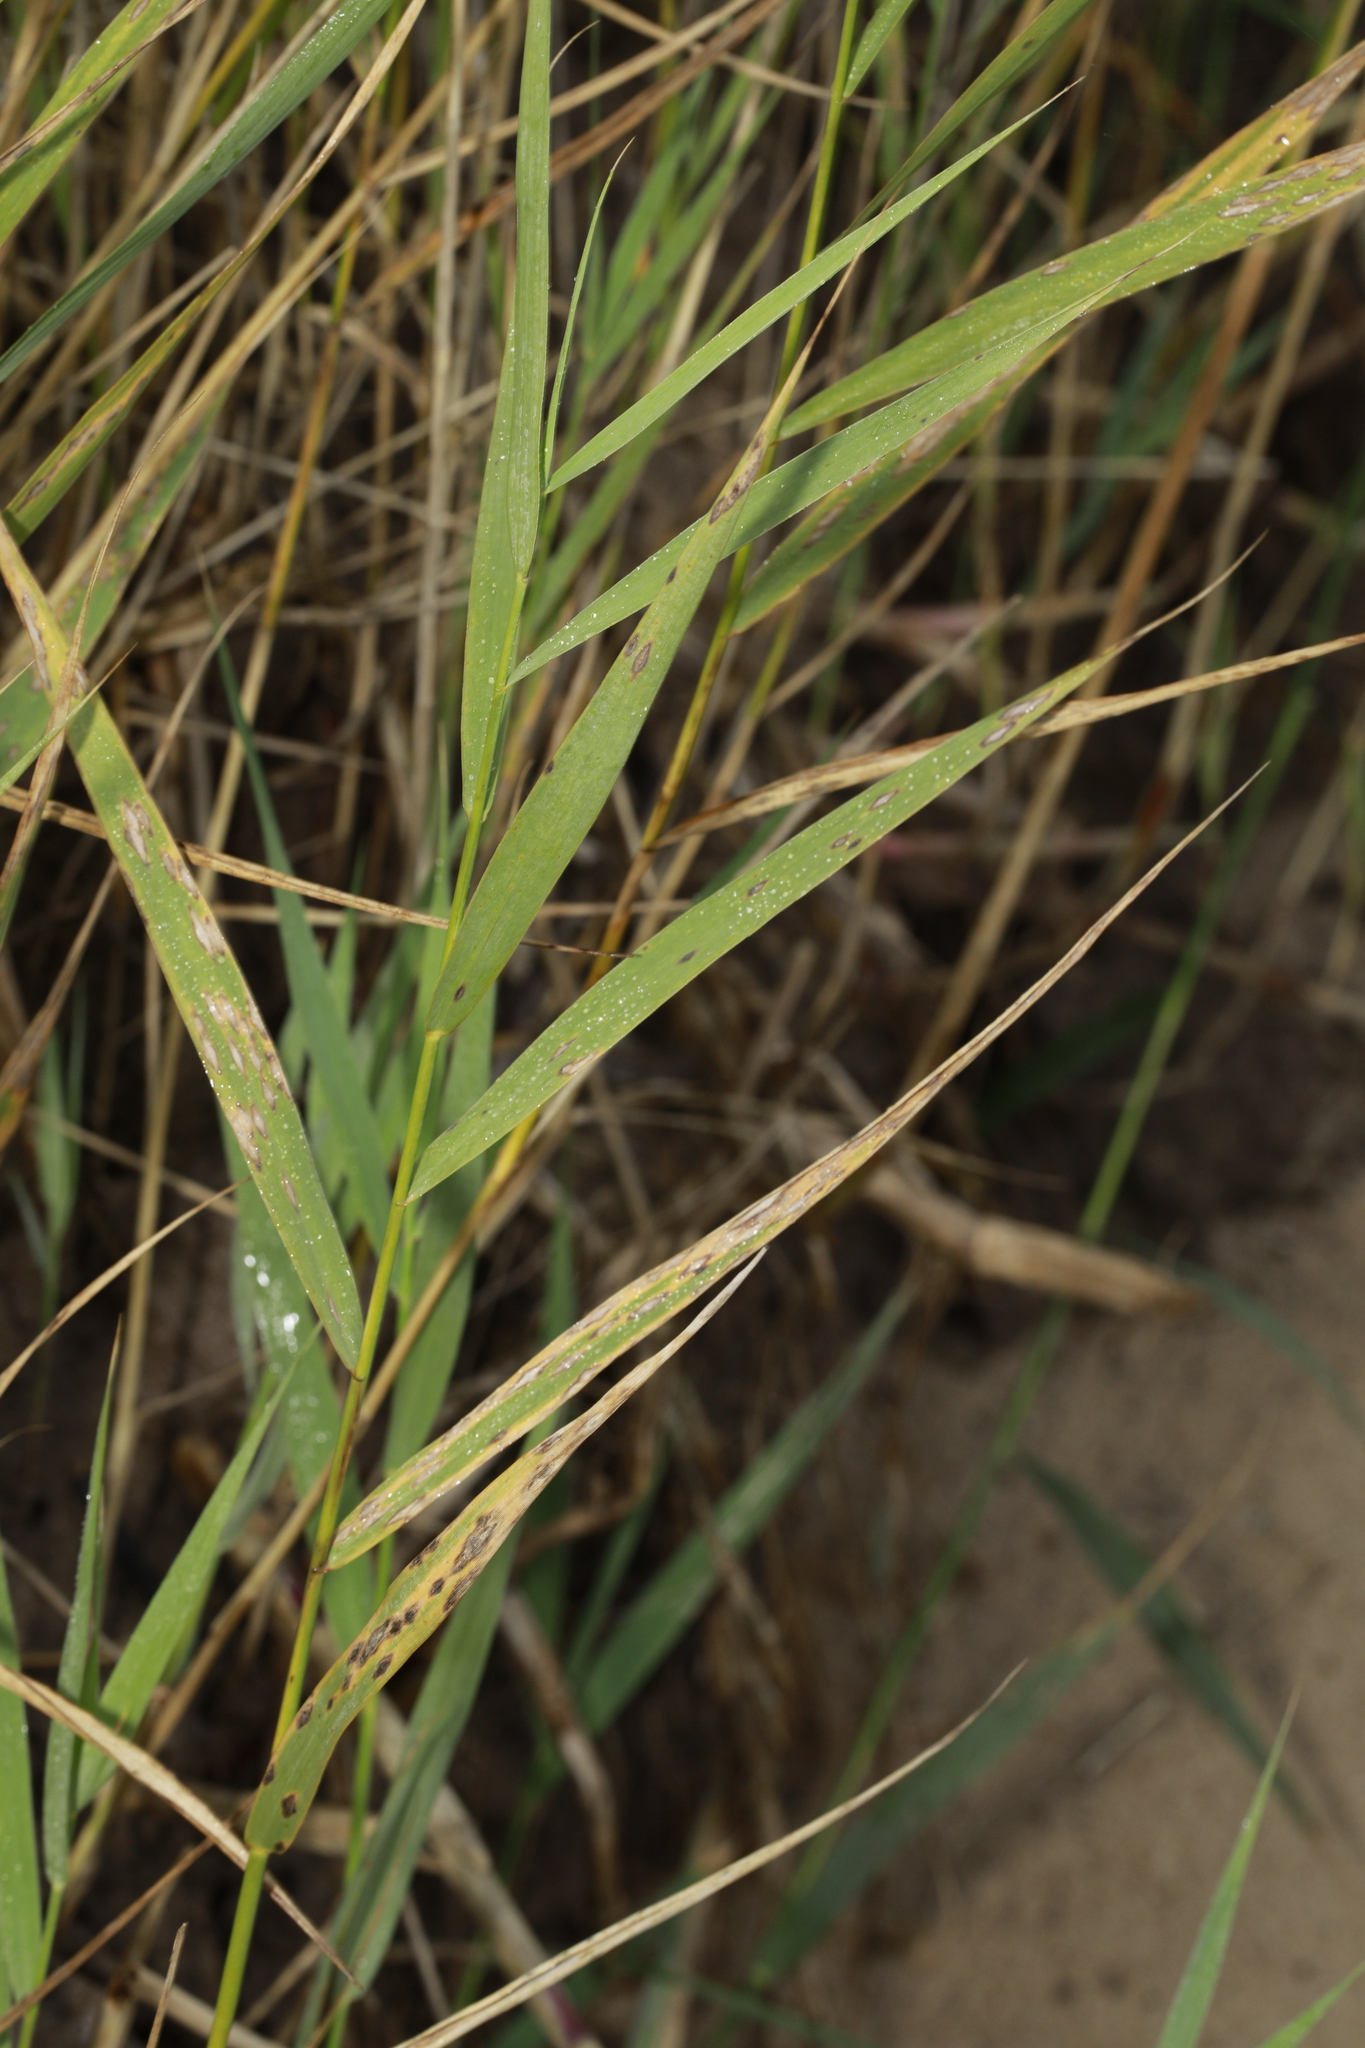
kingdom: Plantae
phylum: Tracheophyta
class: Liliopsida
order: Poales
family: Poaceae
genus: Phragmites
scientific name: Phragmites australis
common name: Common reed
